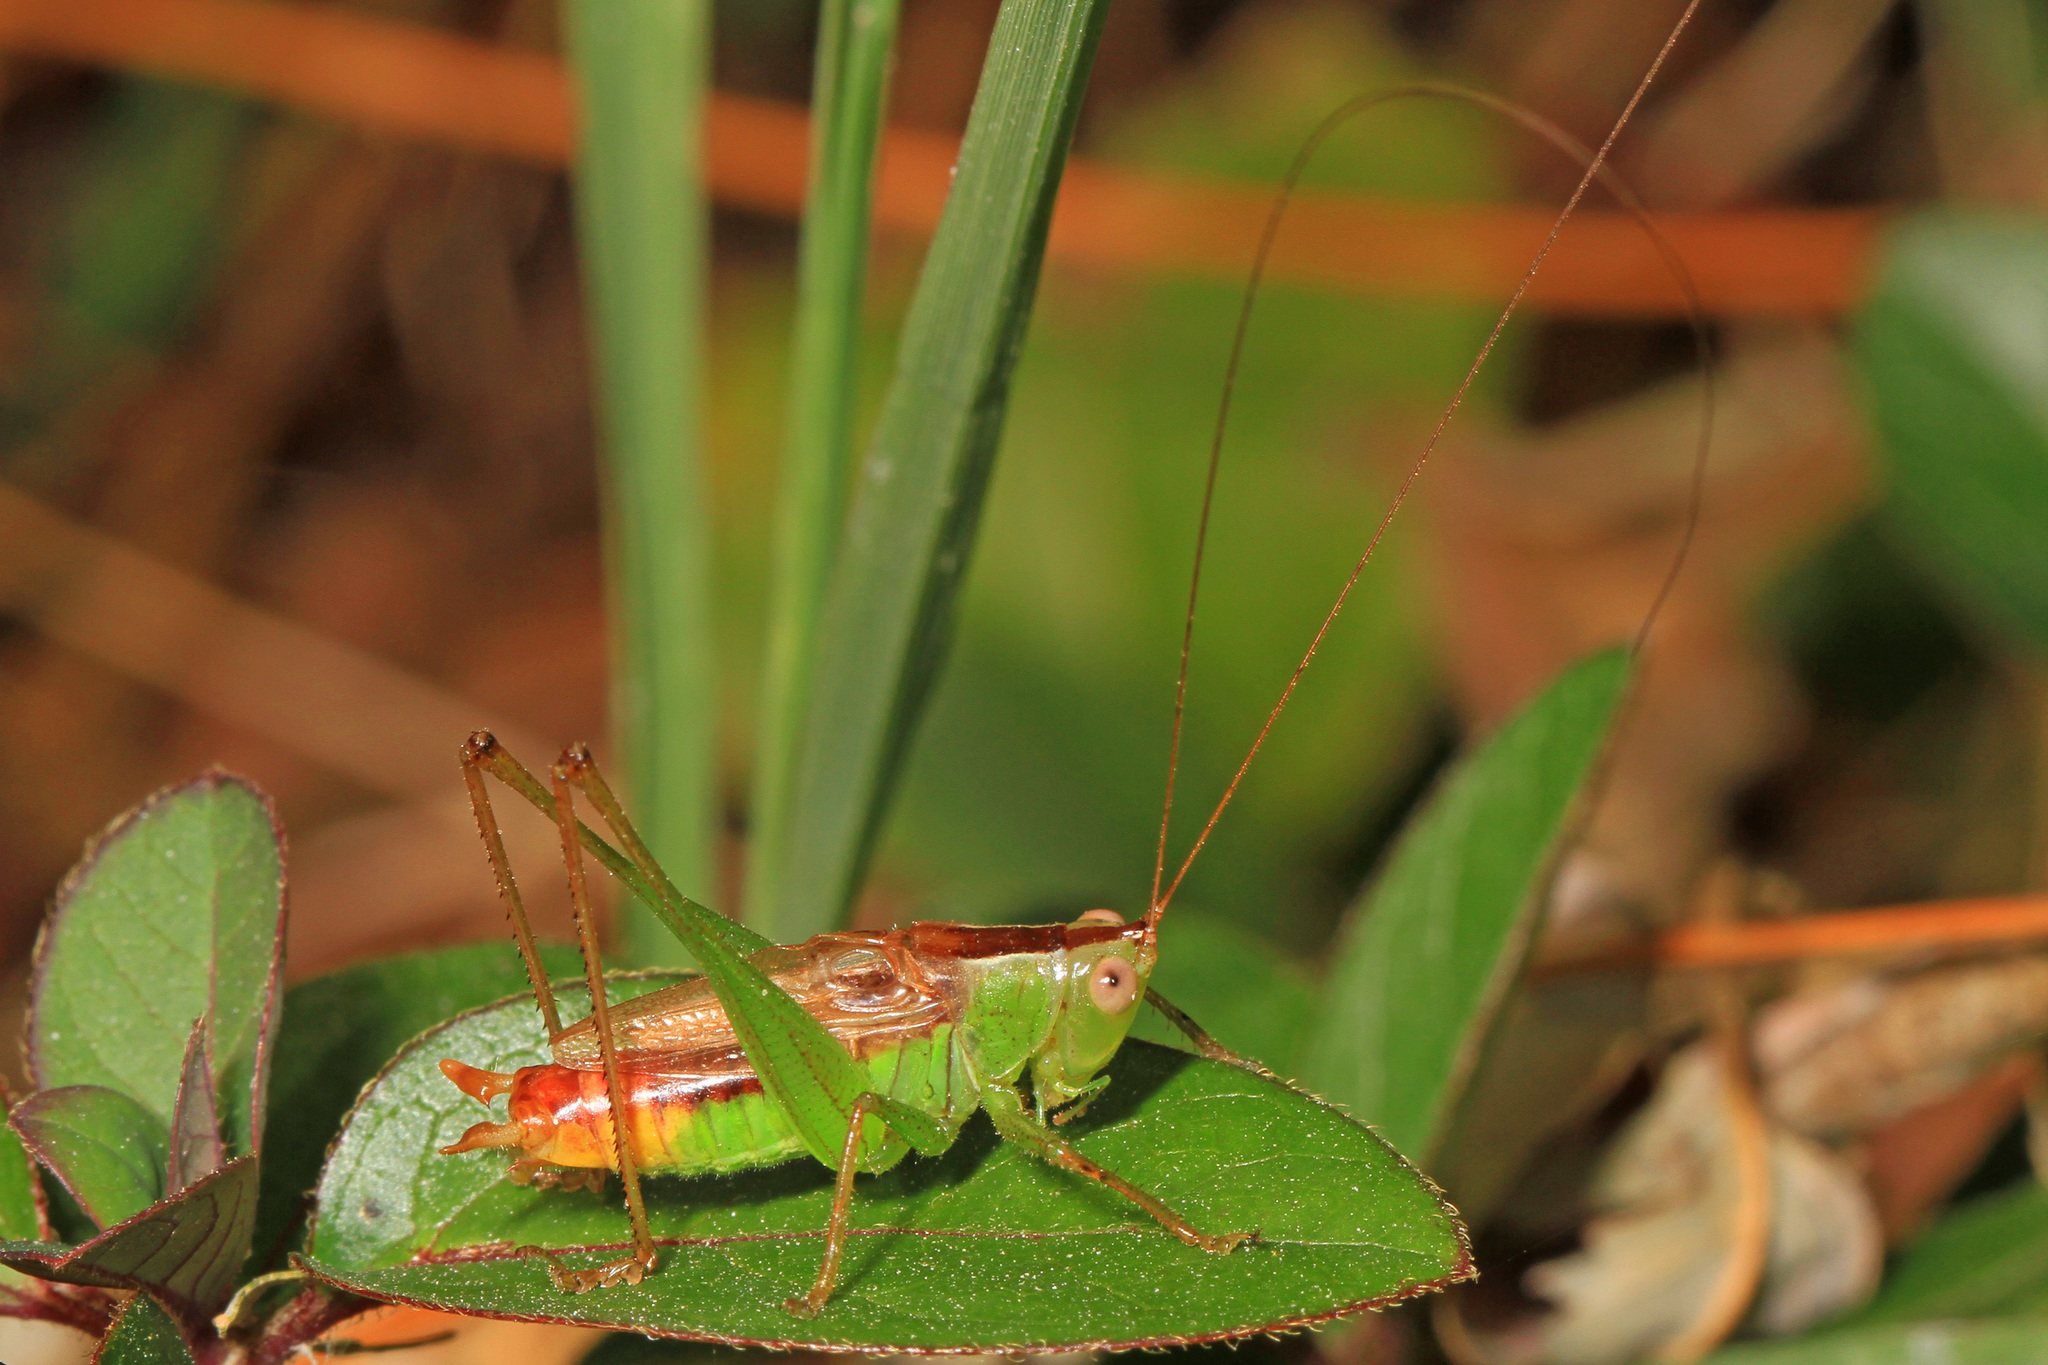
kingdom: Animalia
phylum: Arthropoda
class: Insecta
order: Orthoptera
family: Tettigoniidae
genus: Conocephalus
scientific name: Conocephalus brevipennis
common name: Short-winged meadow katydid
